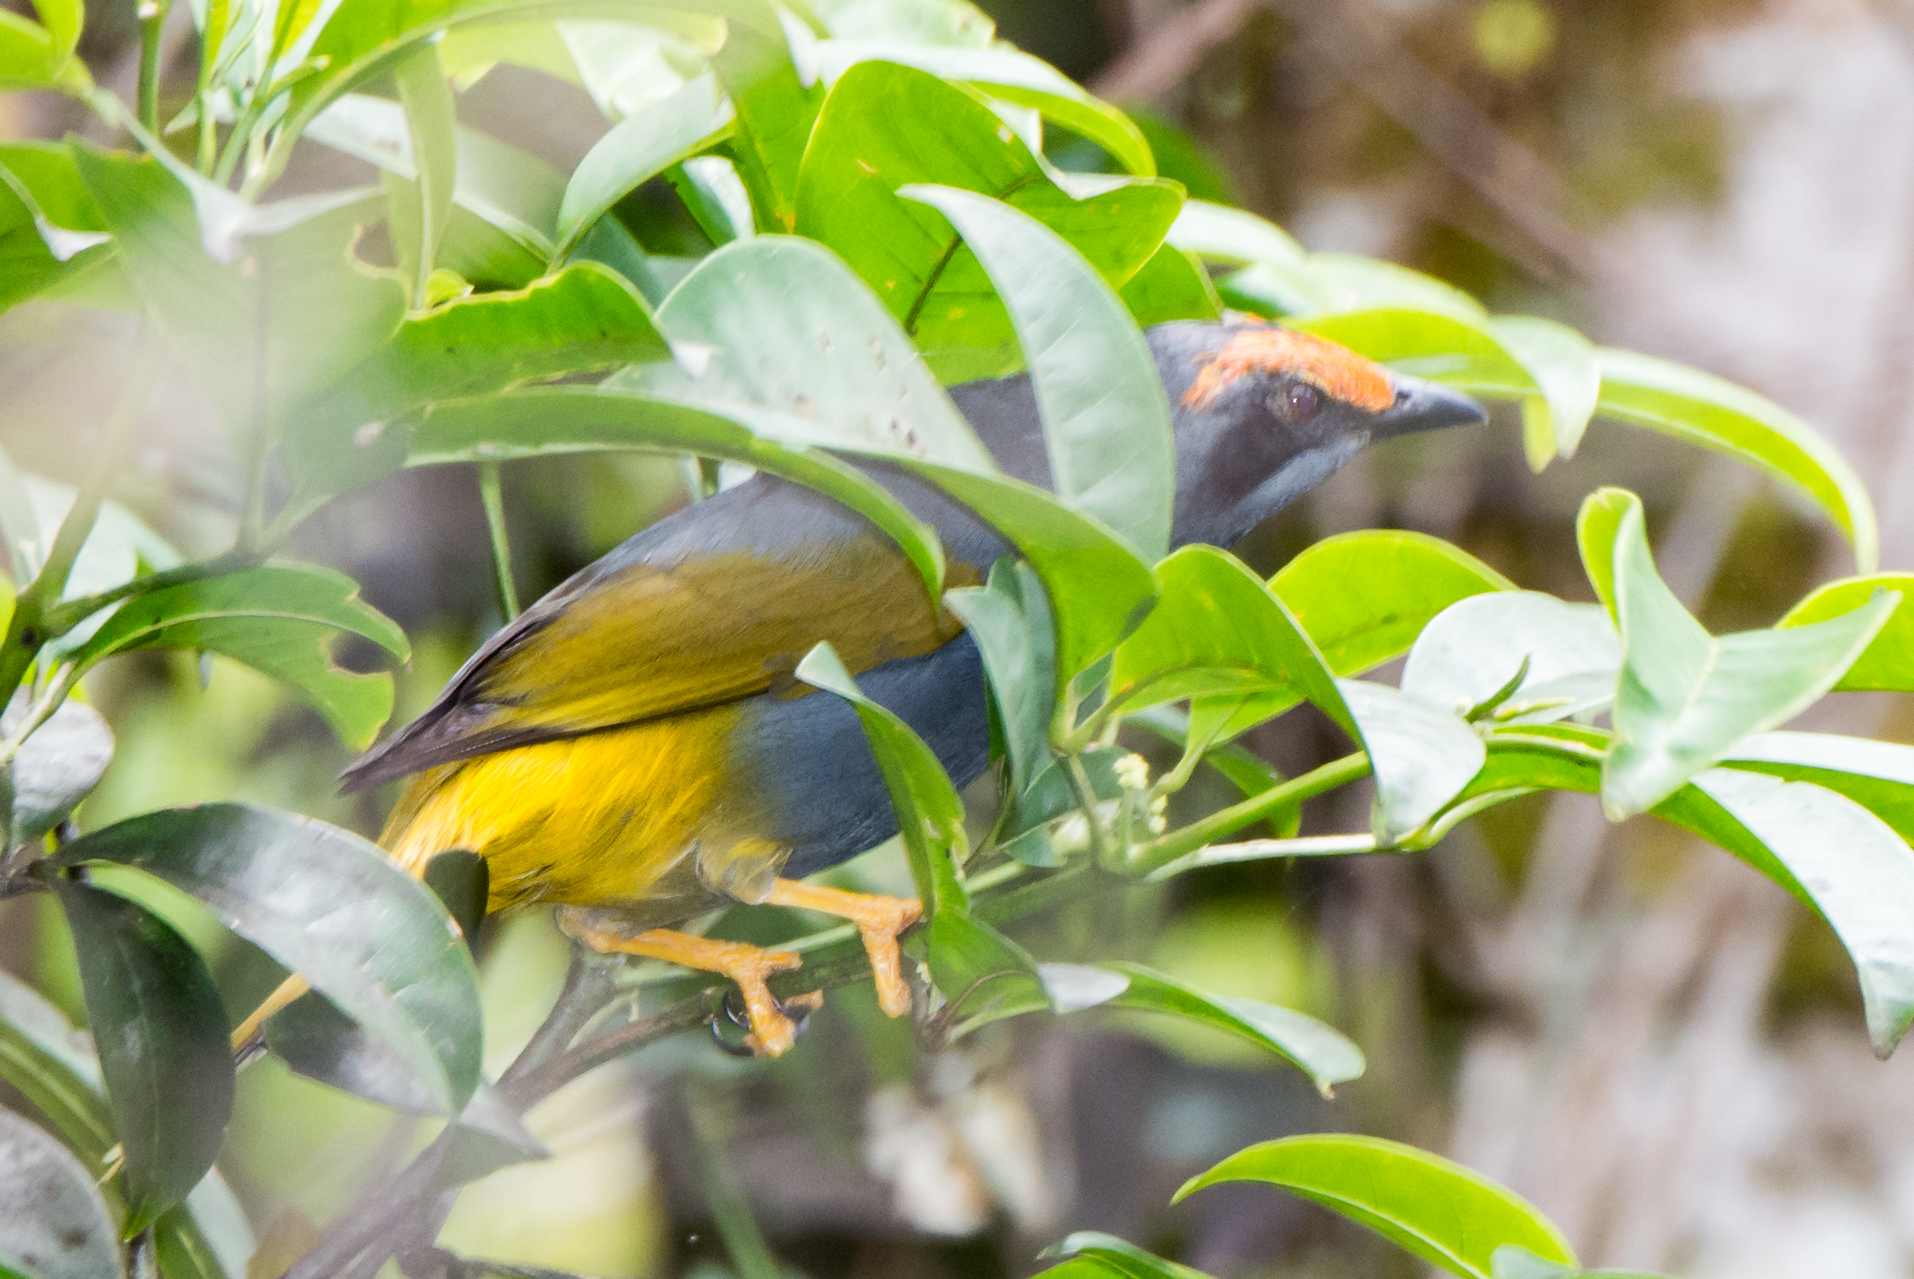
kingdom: Animalia
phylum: Chordata
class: Aves
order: Passeriformes
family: Sturnidae
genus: Enodes
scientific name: Enodes erythrophris
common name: Fiery-browed starling
